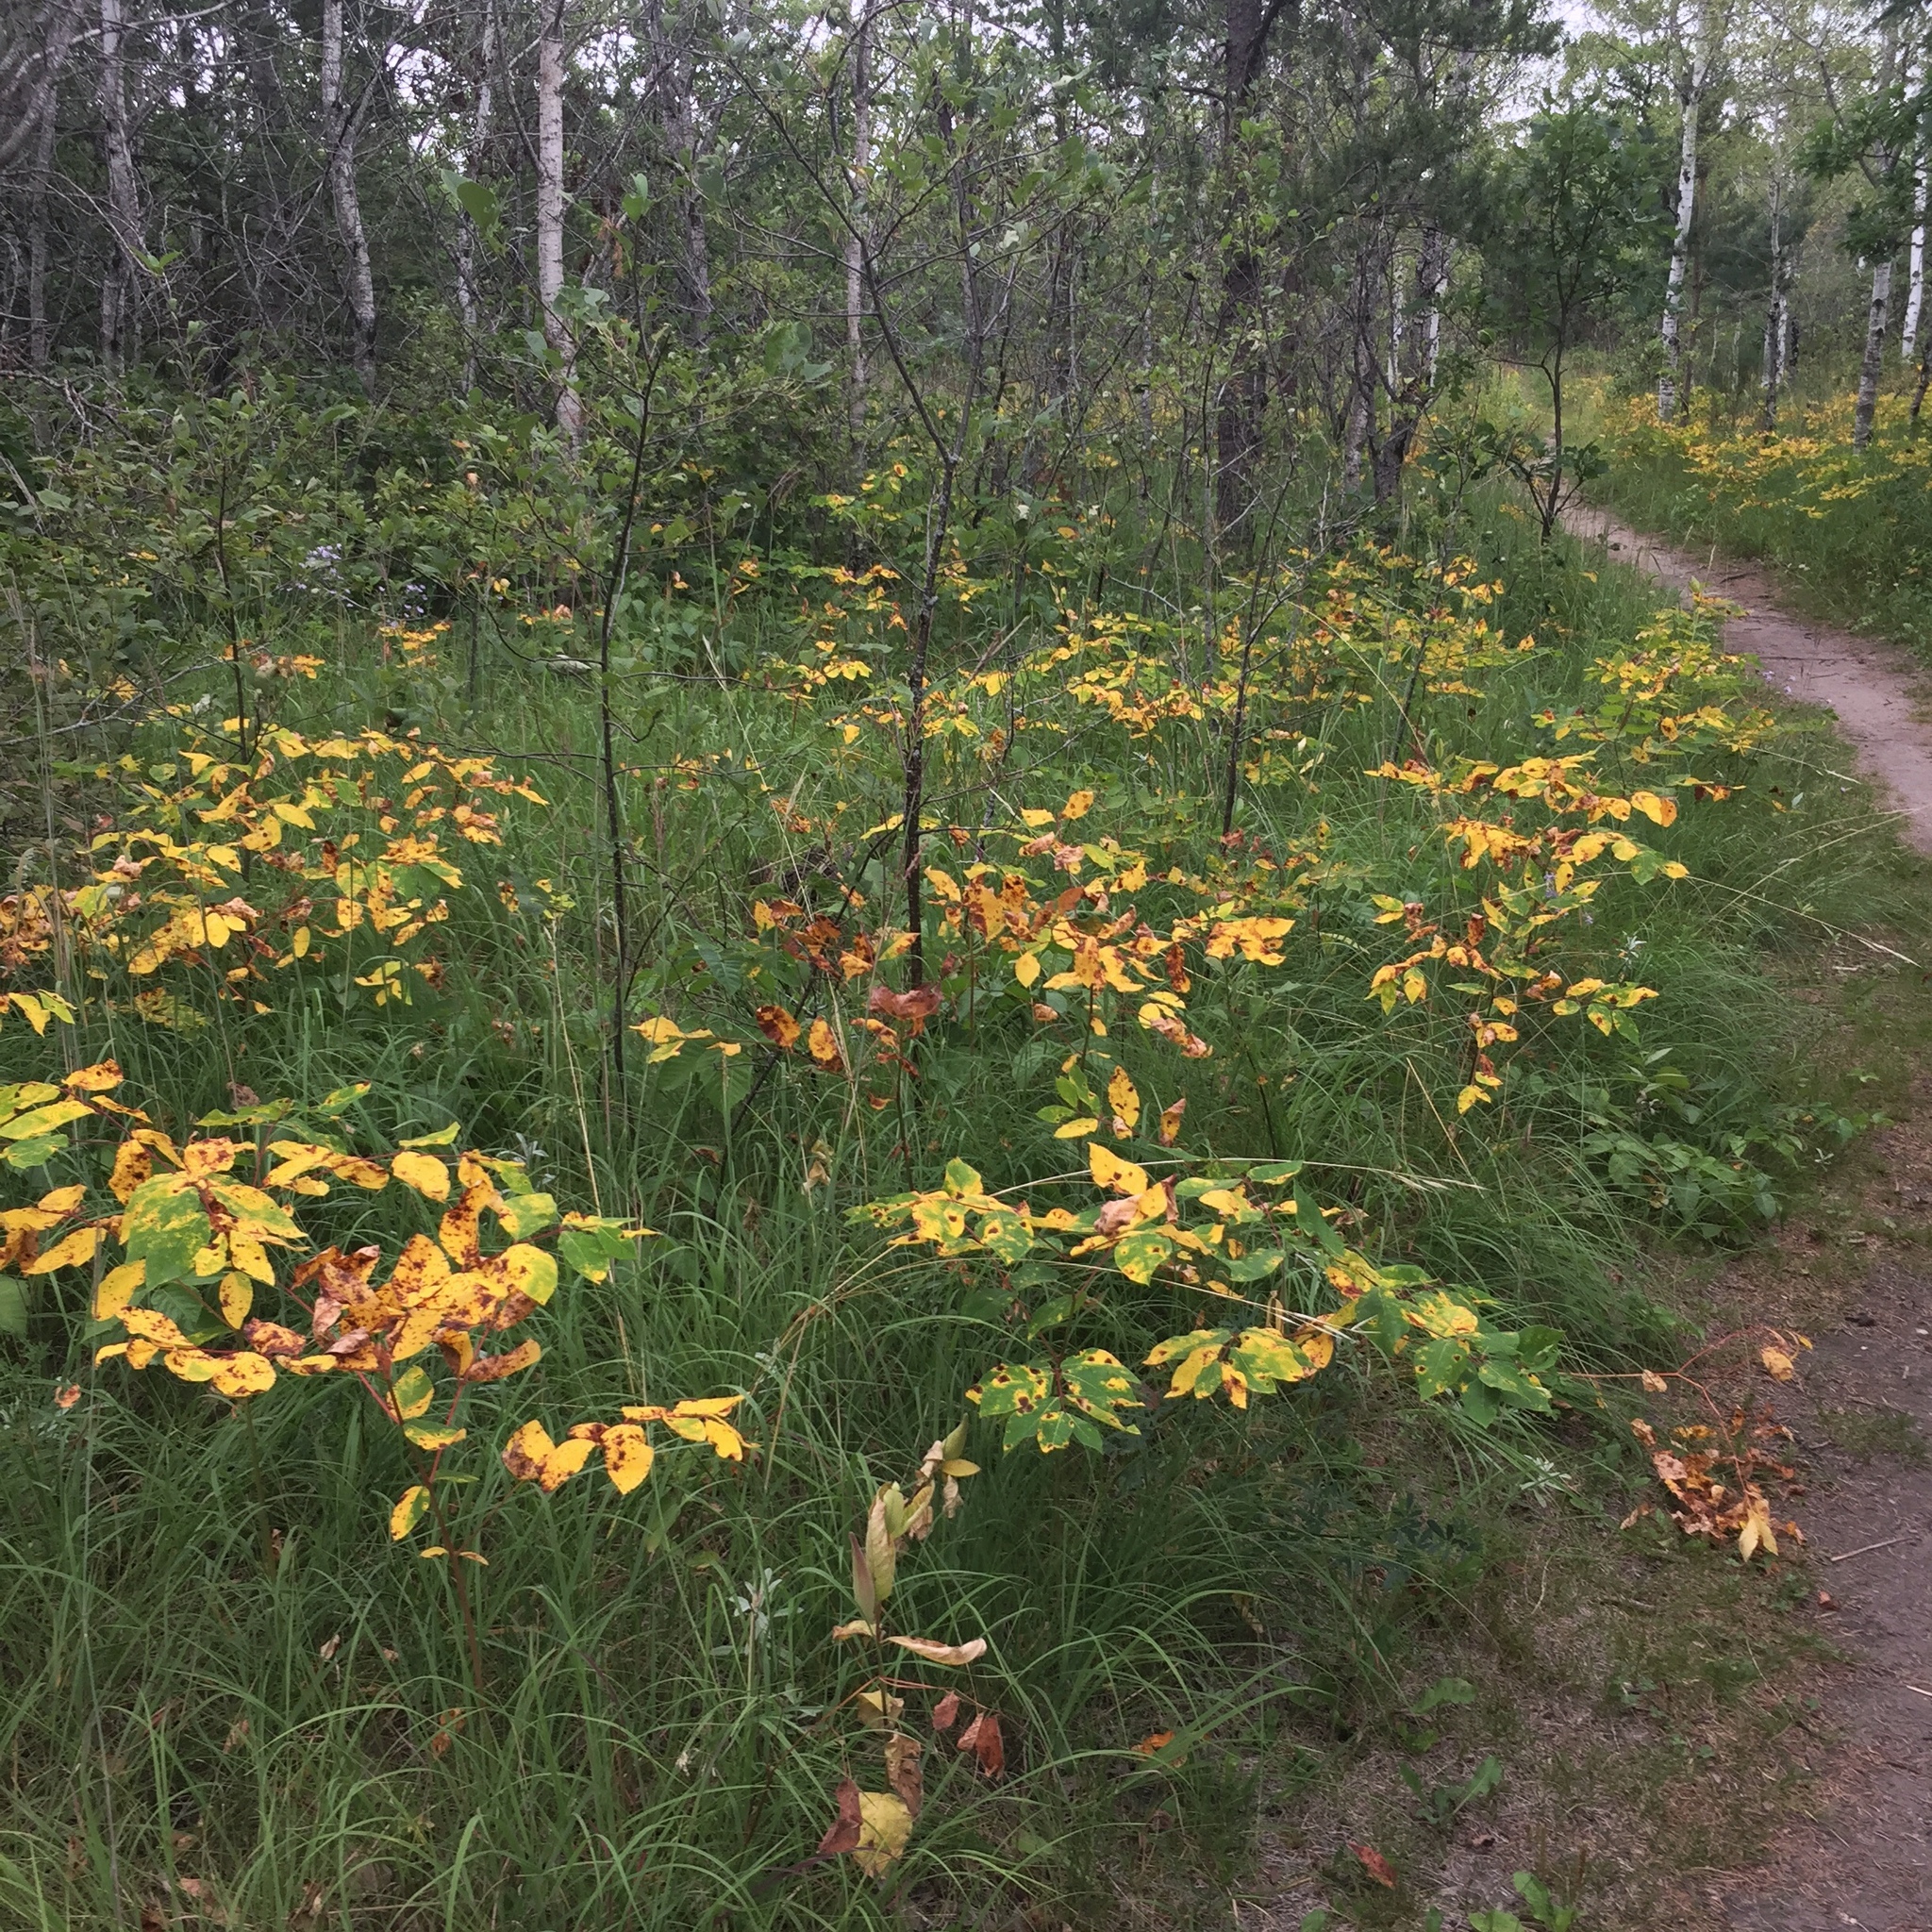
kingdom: Plantae
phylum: Tracheophyta
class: Magnoliopsida
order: Gentianales
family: Apocynaceae
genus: Apocynum
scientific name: Apocynum androsaemifolium
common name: Spreading dogbane
